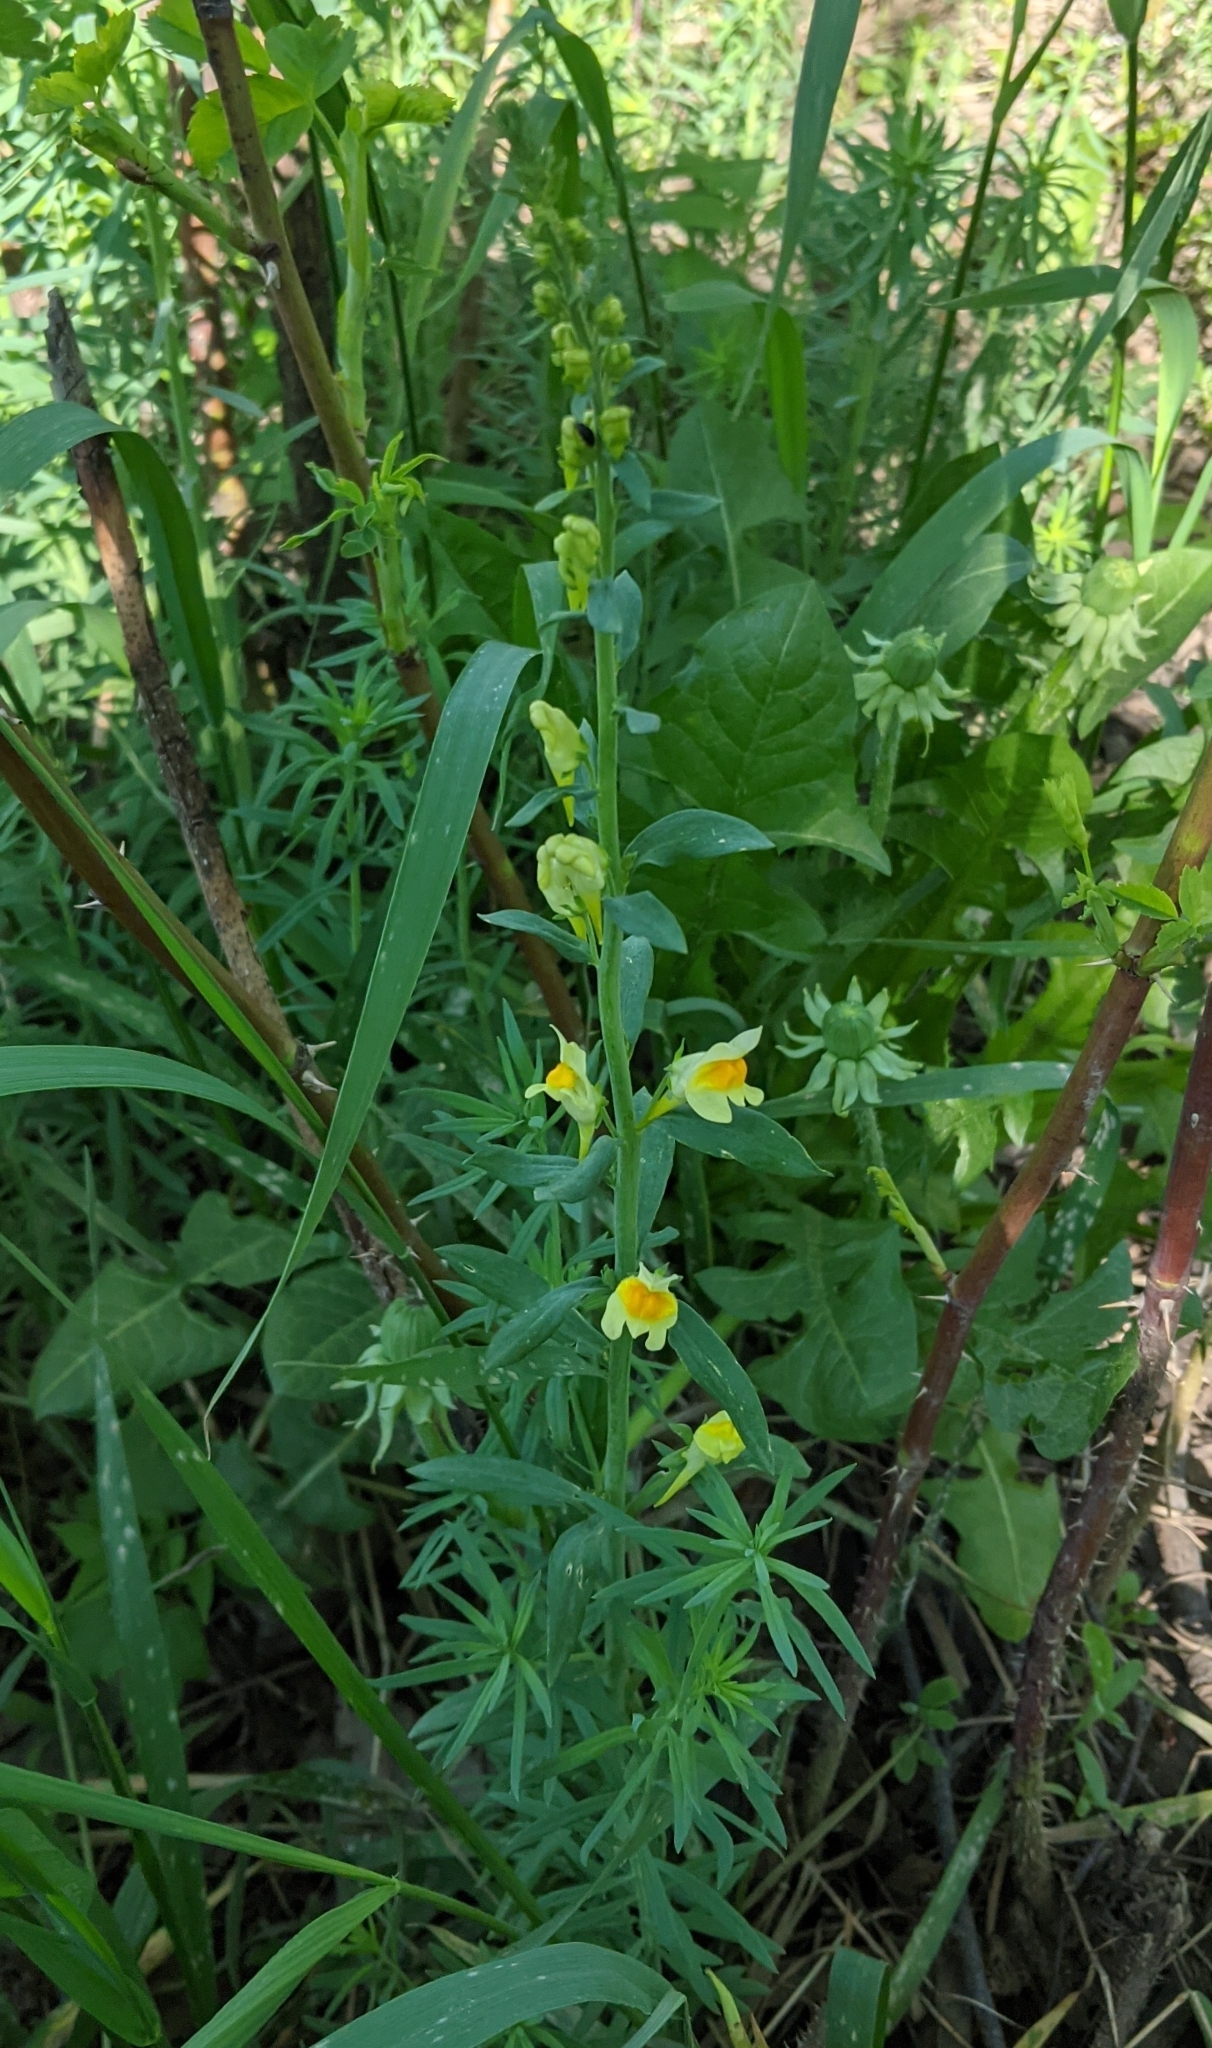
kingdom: Plantae
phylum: Tracheophyta
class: Magnoliopsida
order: Lamiales
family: Plantaginaceae
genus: Linaria
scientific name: Linaria vulgaris
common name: Butter and eggs
